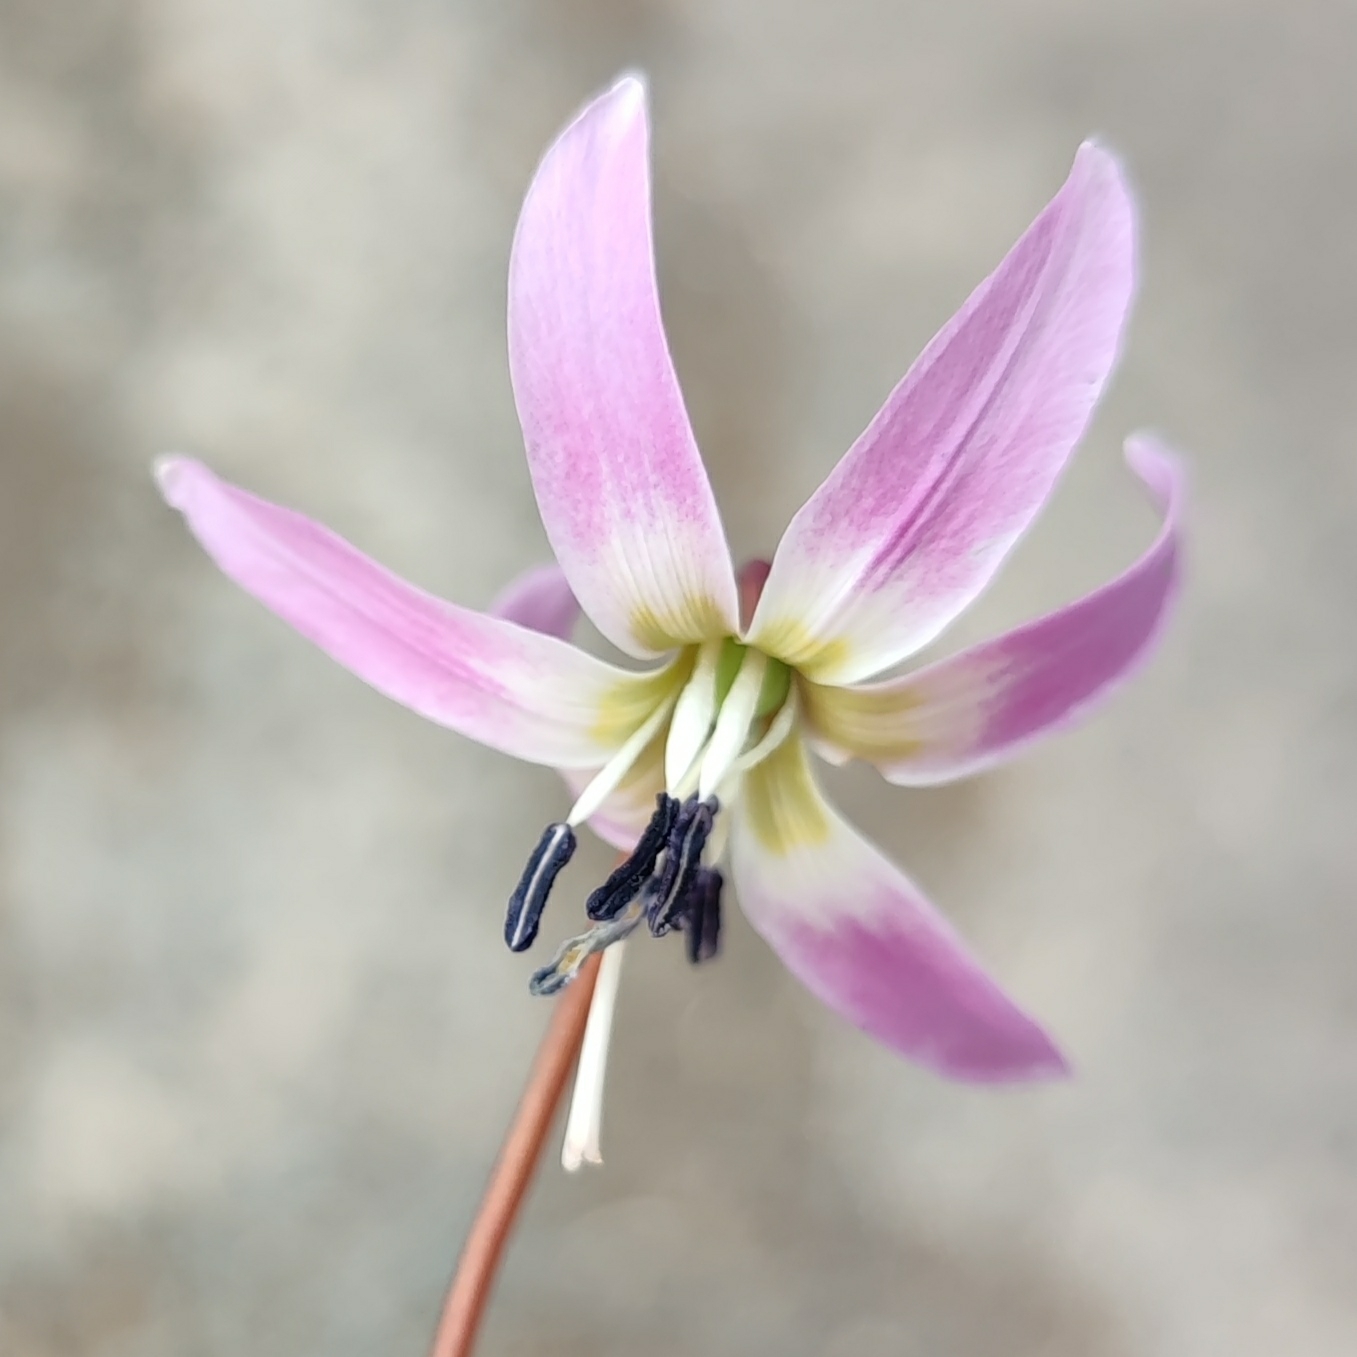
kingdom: Plantae
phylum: Tracheophyta
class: Liliopsida
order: Liliales
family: Liliaceae
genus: Erythronium
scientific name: Erythronium dens-canis
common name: Dog's-tooth-violet
